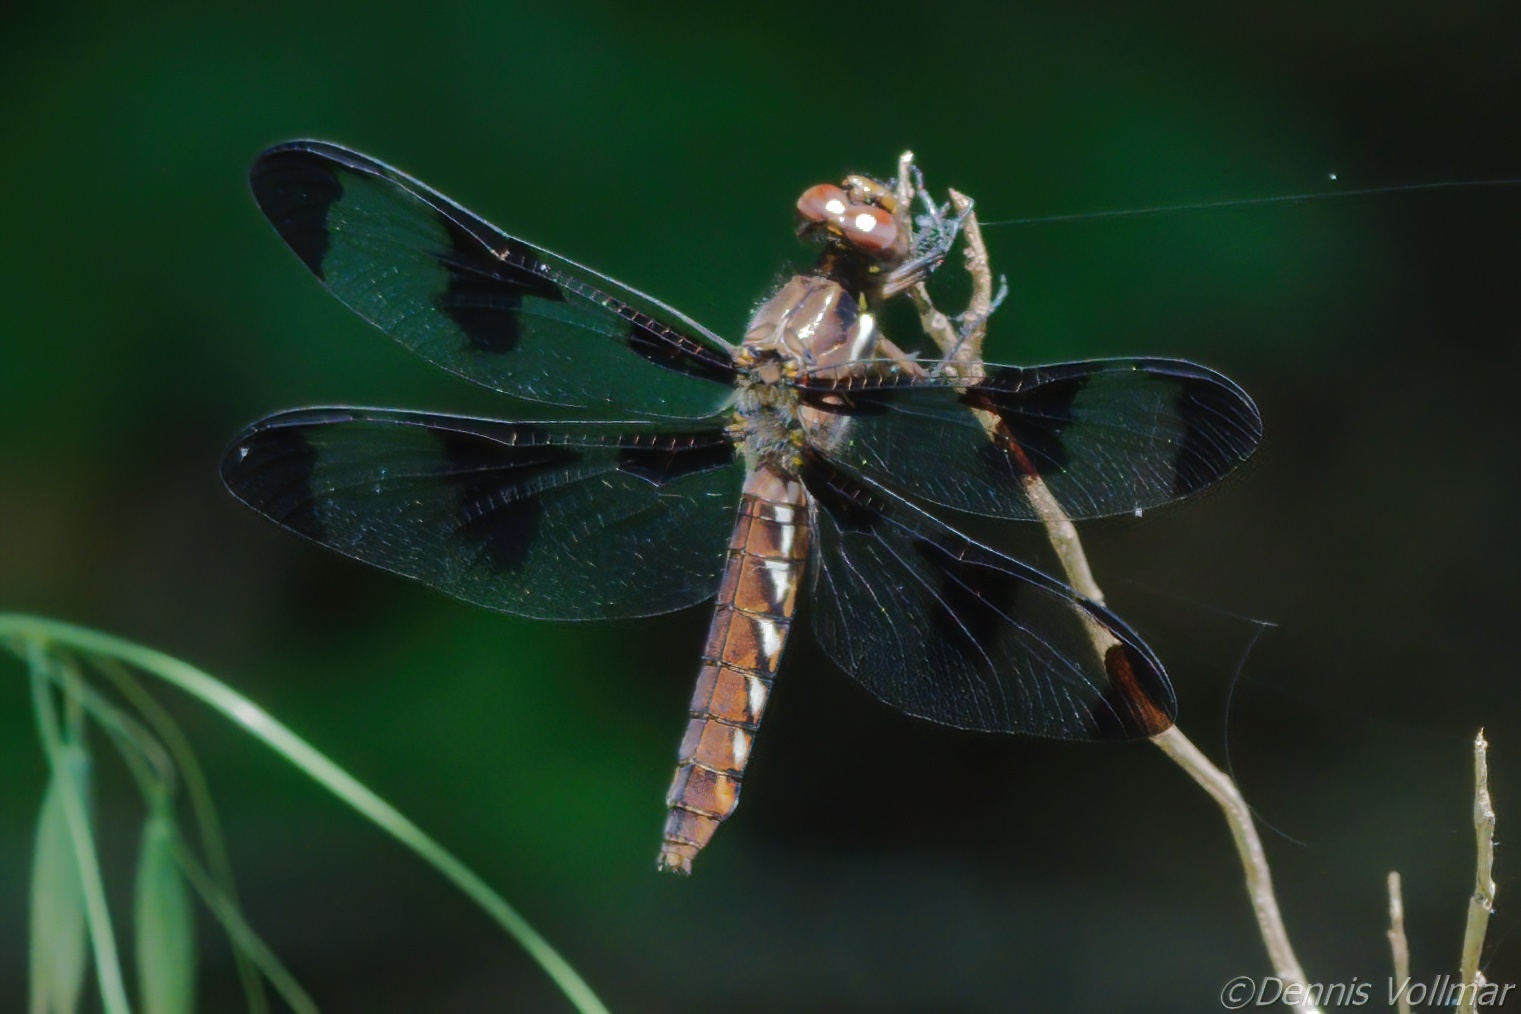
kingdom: Animalia
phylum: Arthropoda
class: Insecta
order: Odonata
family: Libellulidae
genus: Plathemis
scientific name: Plathemis lydia
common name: Common whitetail
